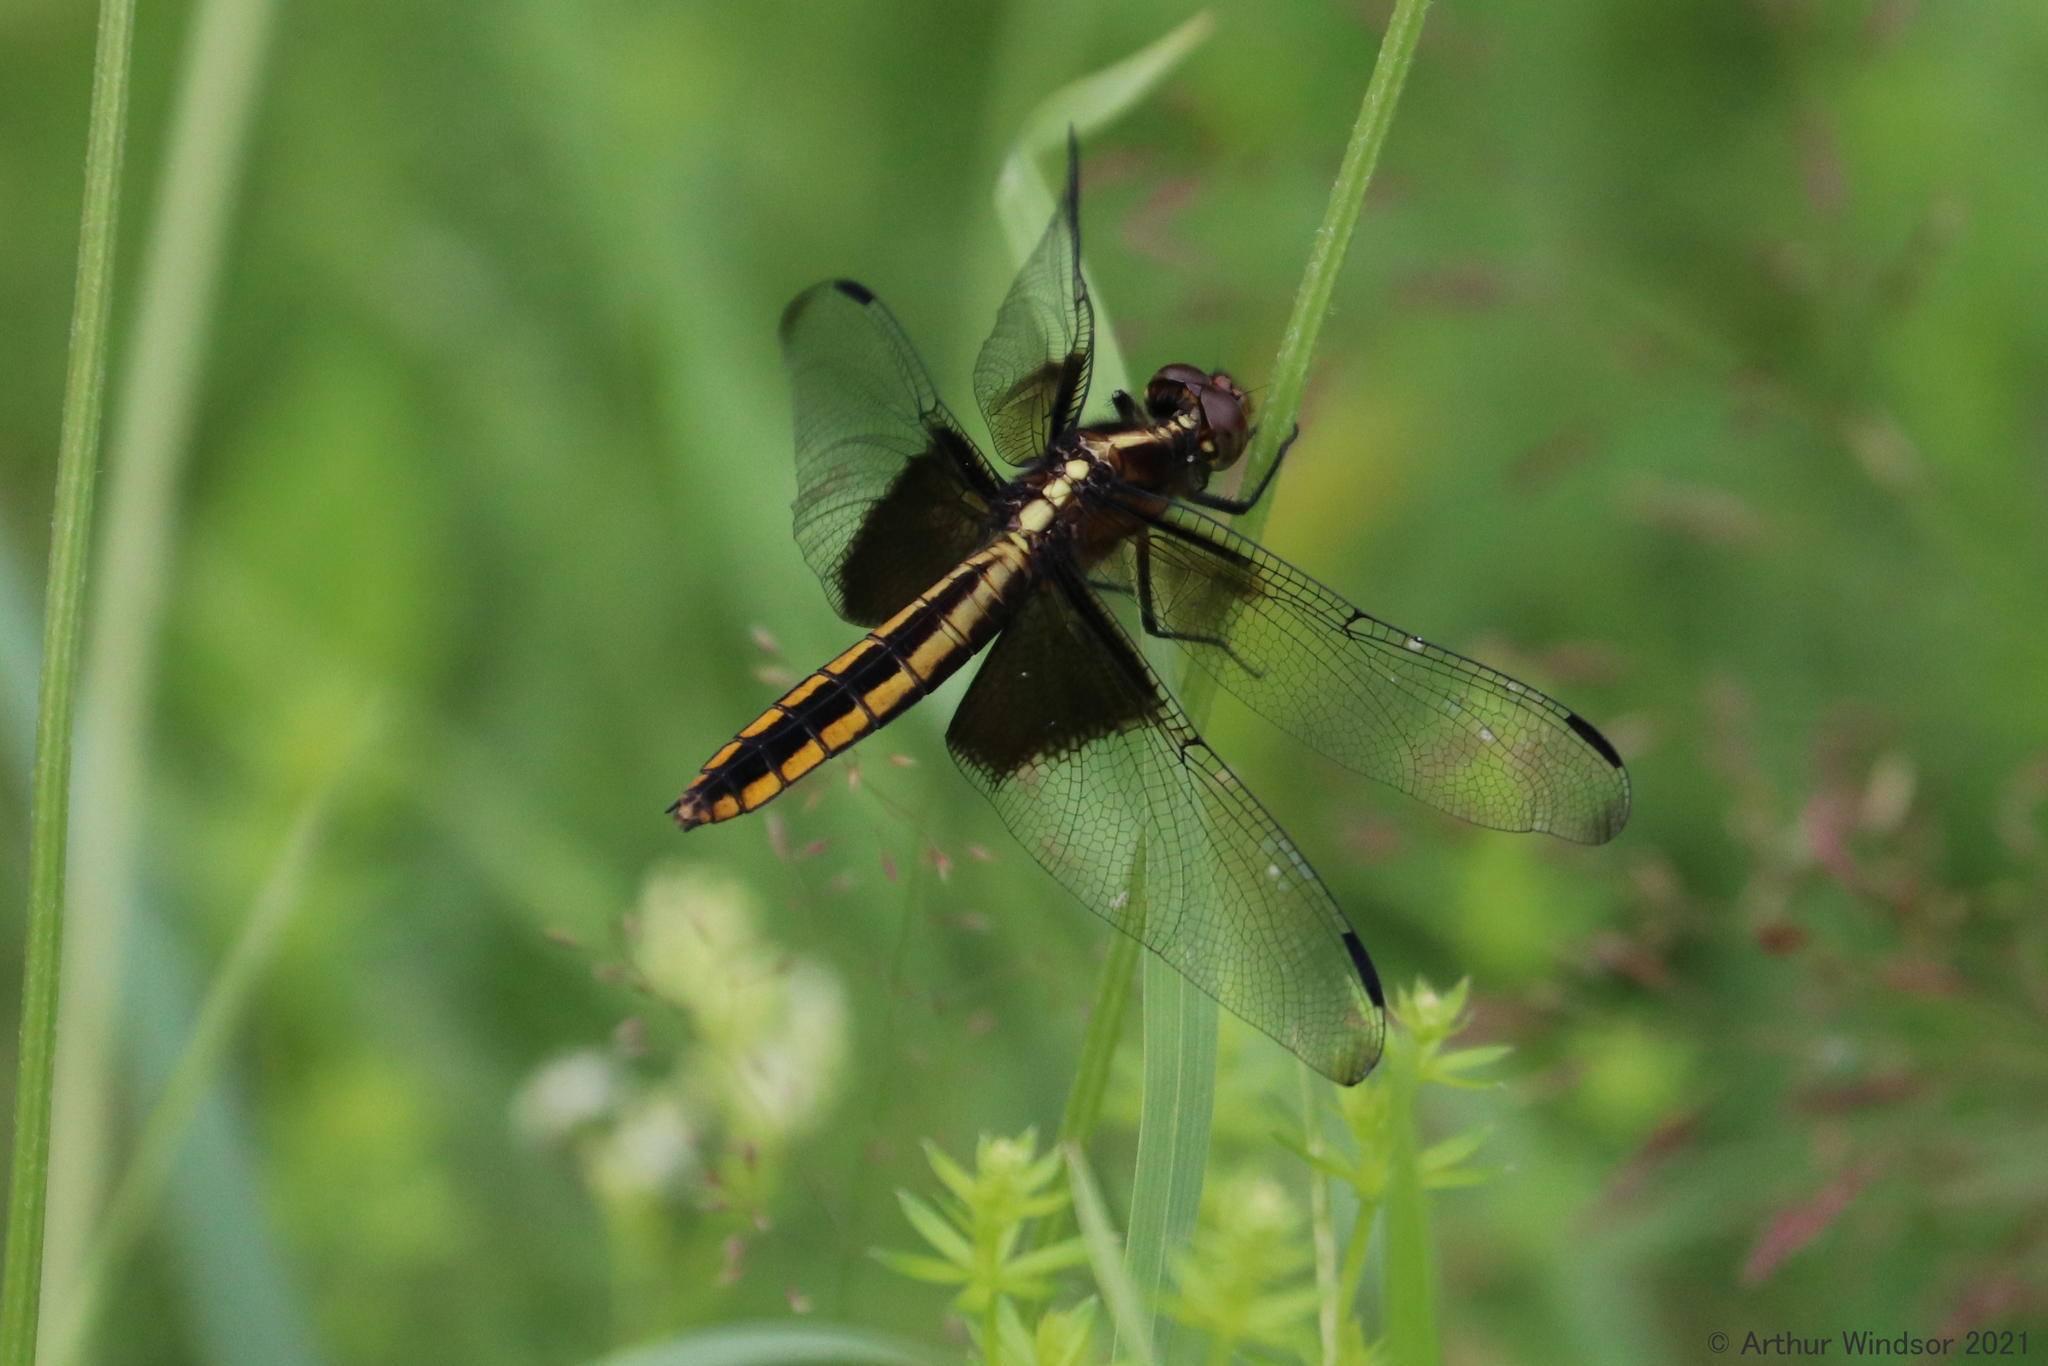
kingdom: Animalia
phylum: Arthropoda
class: Insecta
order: Odonata
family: Libellulidae
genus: Libellula
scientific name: Libellula luctuosa
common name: Widow skimmer
